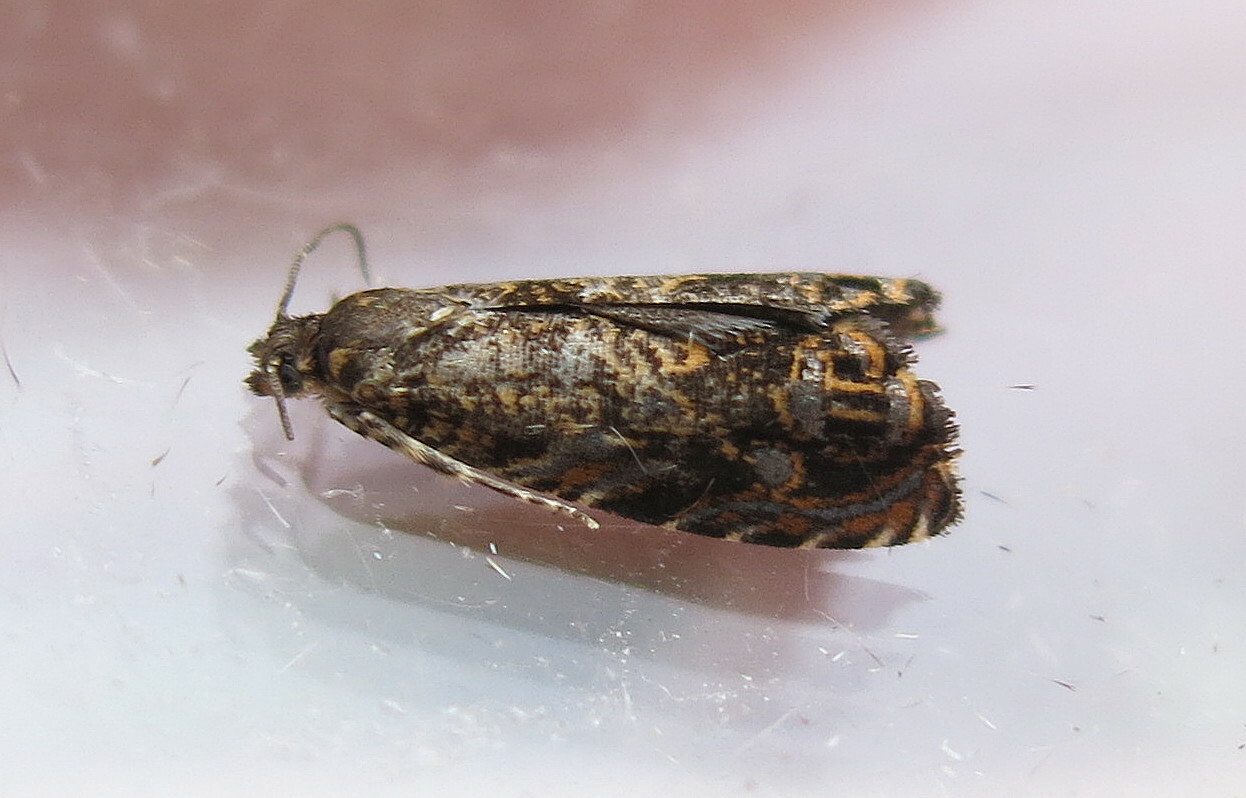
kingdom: Animalia
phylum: Arthropoda
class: Insecta
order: Lepidoptera
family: Tortricidae
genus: Enarmonia
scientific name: Enarmonia formosana
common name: Cherry bark tortrix
